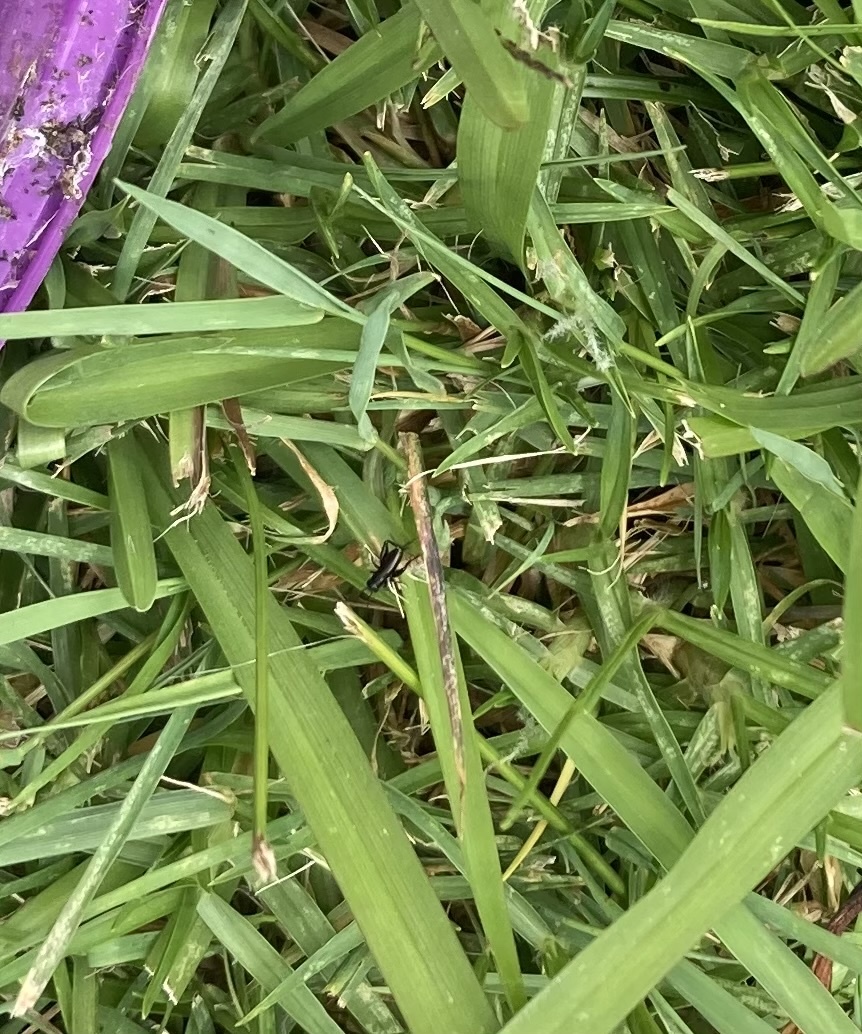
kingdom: Animalia
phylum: Arthropoda
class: Insecta
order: Orthoptera
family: Gryllidae
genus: Teleogryllus
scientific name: Teleogryllus commodus
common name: Black field cricket
